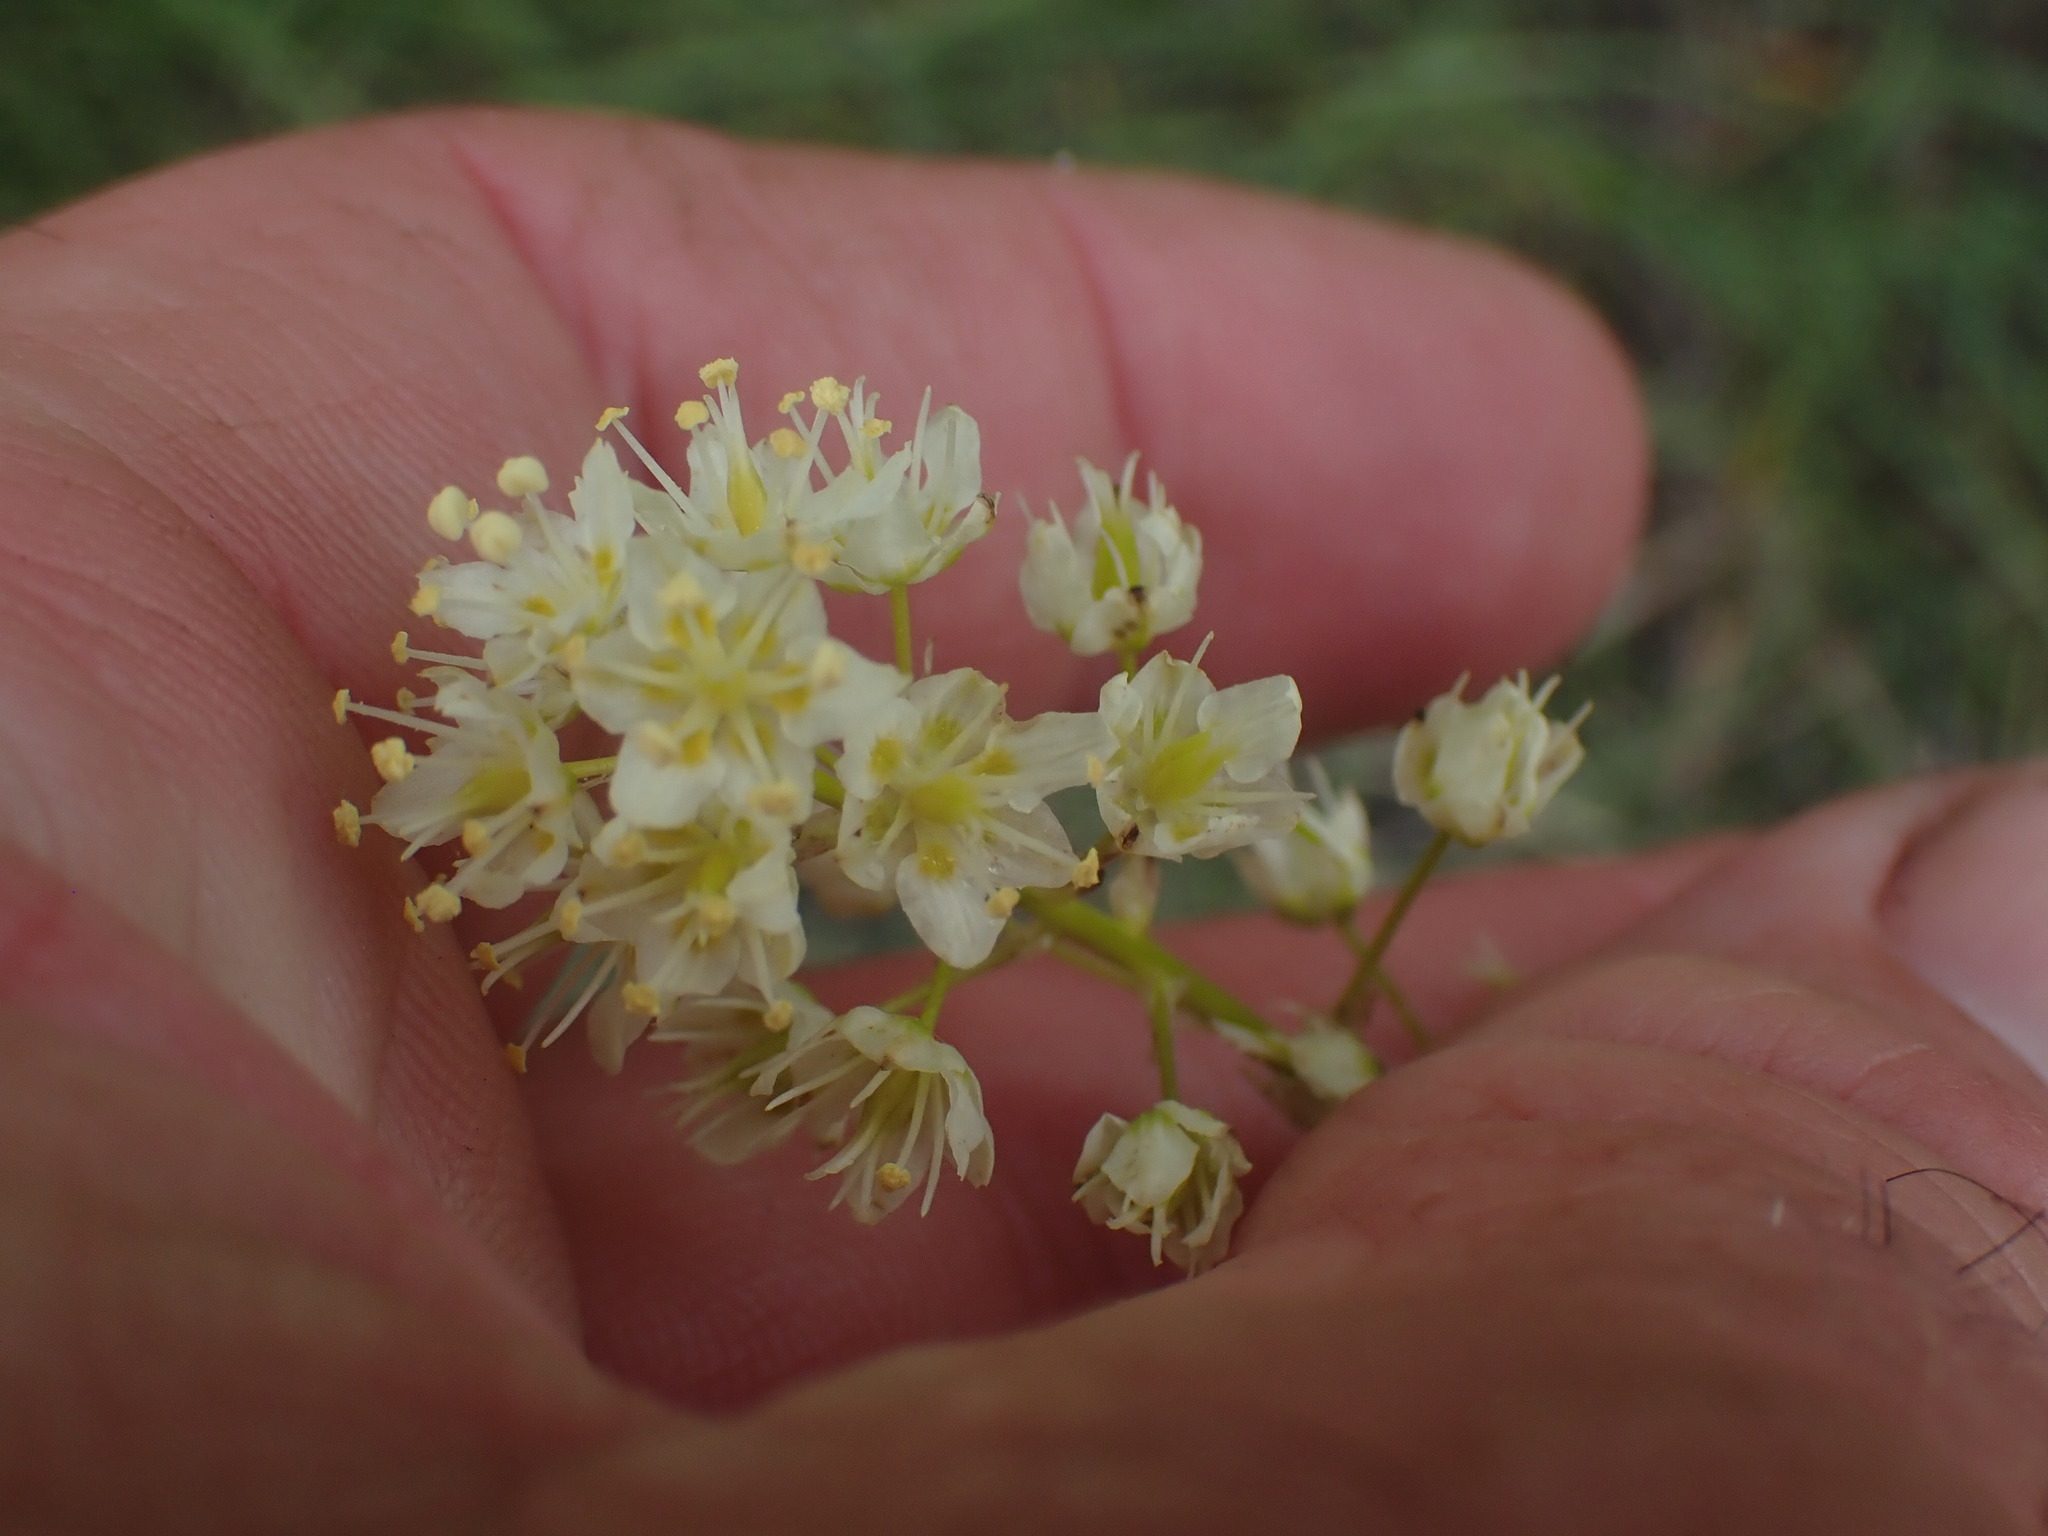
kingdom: Plantae
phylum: Tracheophyta
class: Liliopsida
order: Liliales
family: Melanthiaceae
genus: Toxicoscordion
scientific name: Toxicoscordion venenosum
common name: Meadow death camas
